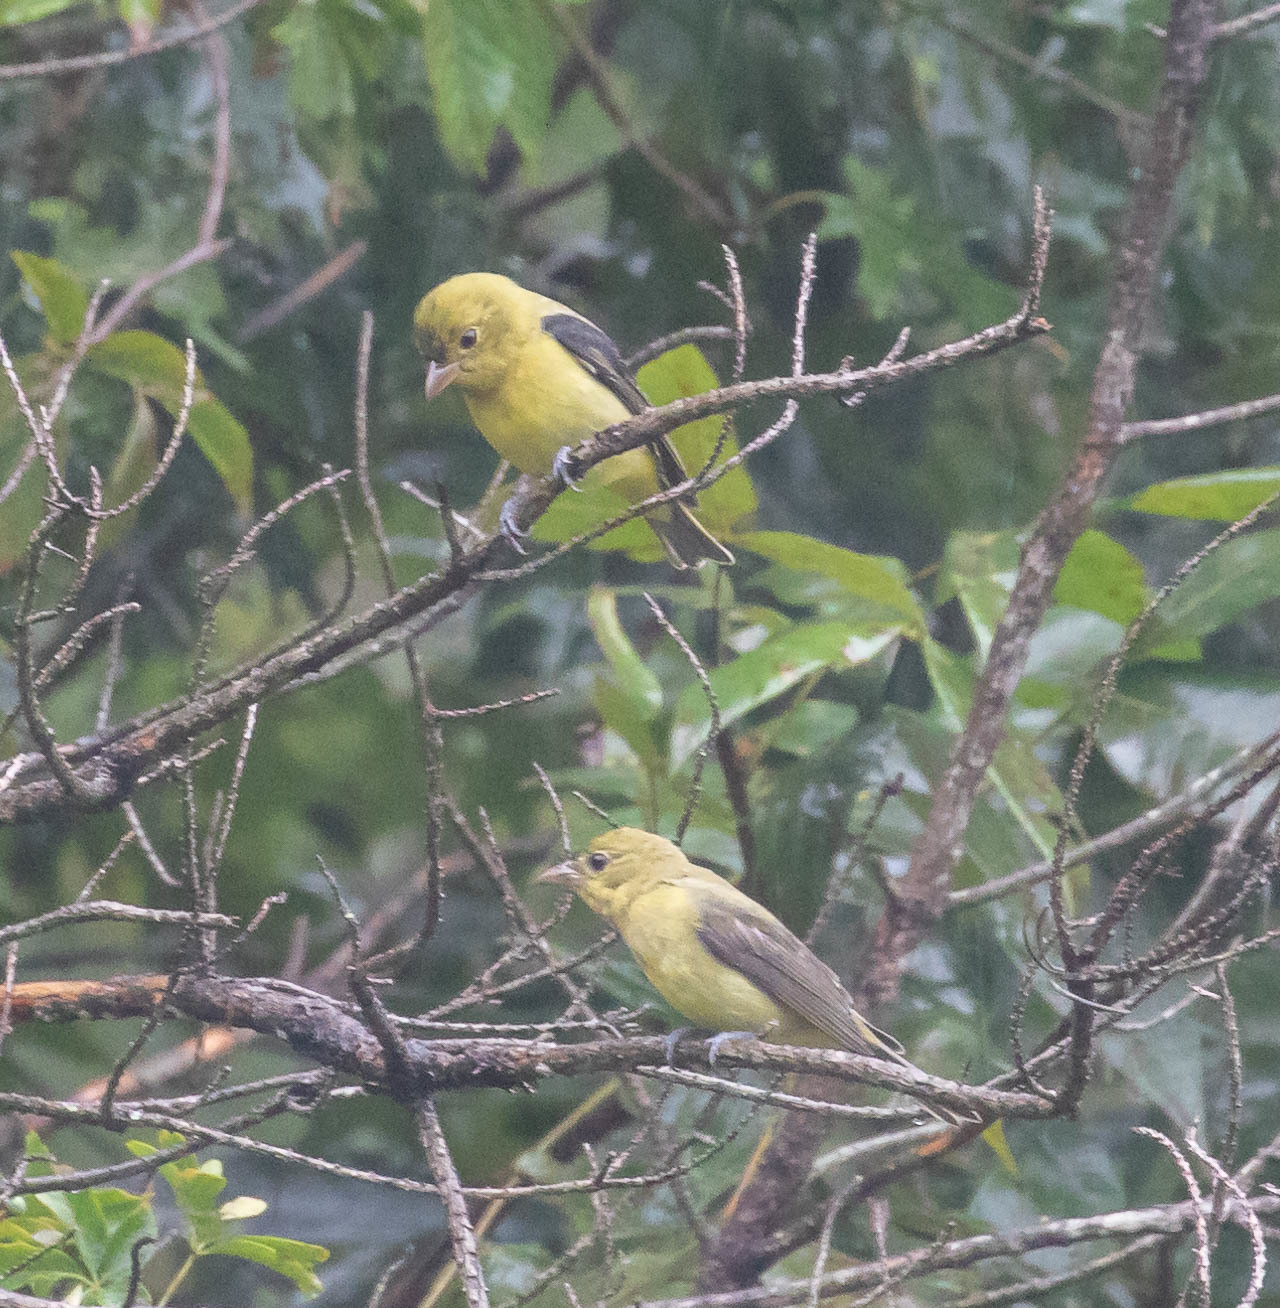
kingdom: Animalia
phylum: Chordata
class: Aves
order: Passeriformes
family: Cardinalidae
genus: Piranga
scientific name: Piranga olivacea
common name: Scarlet tanager
